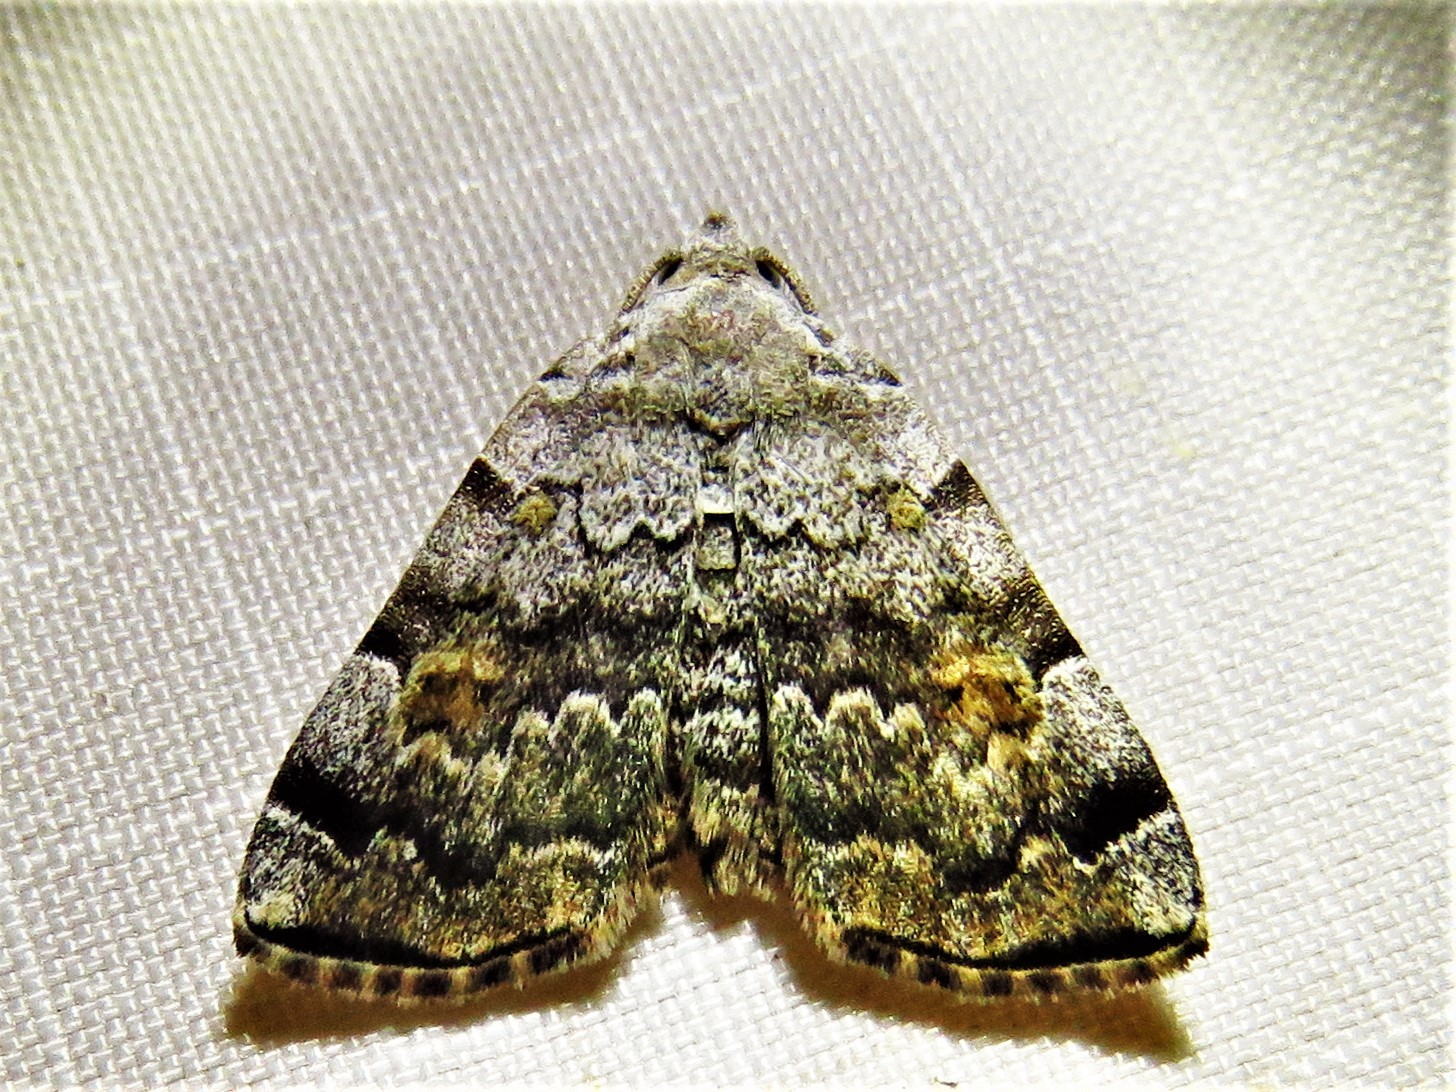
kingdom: Animalia
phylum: Arthropoda
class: Insecta
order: Lepidoptera
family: Erebidae
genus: Idia
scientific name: Idia americalis
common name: American idia moth
